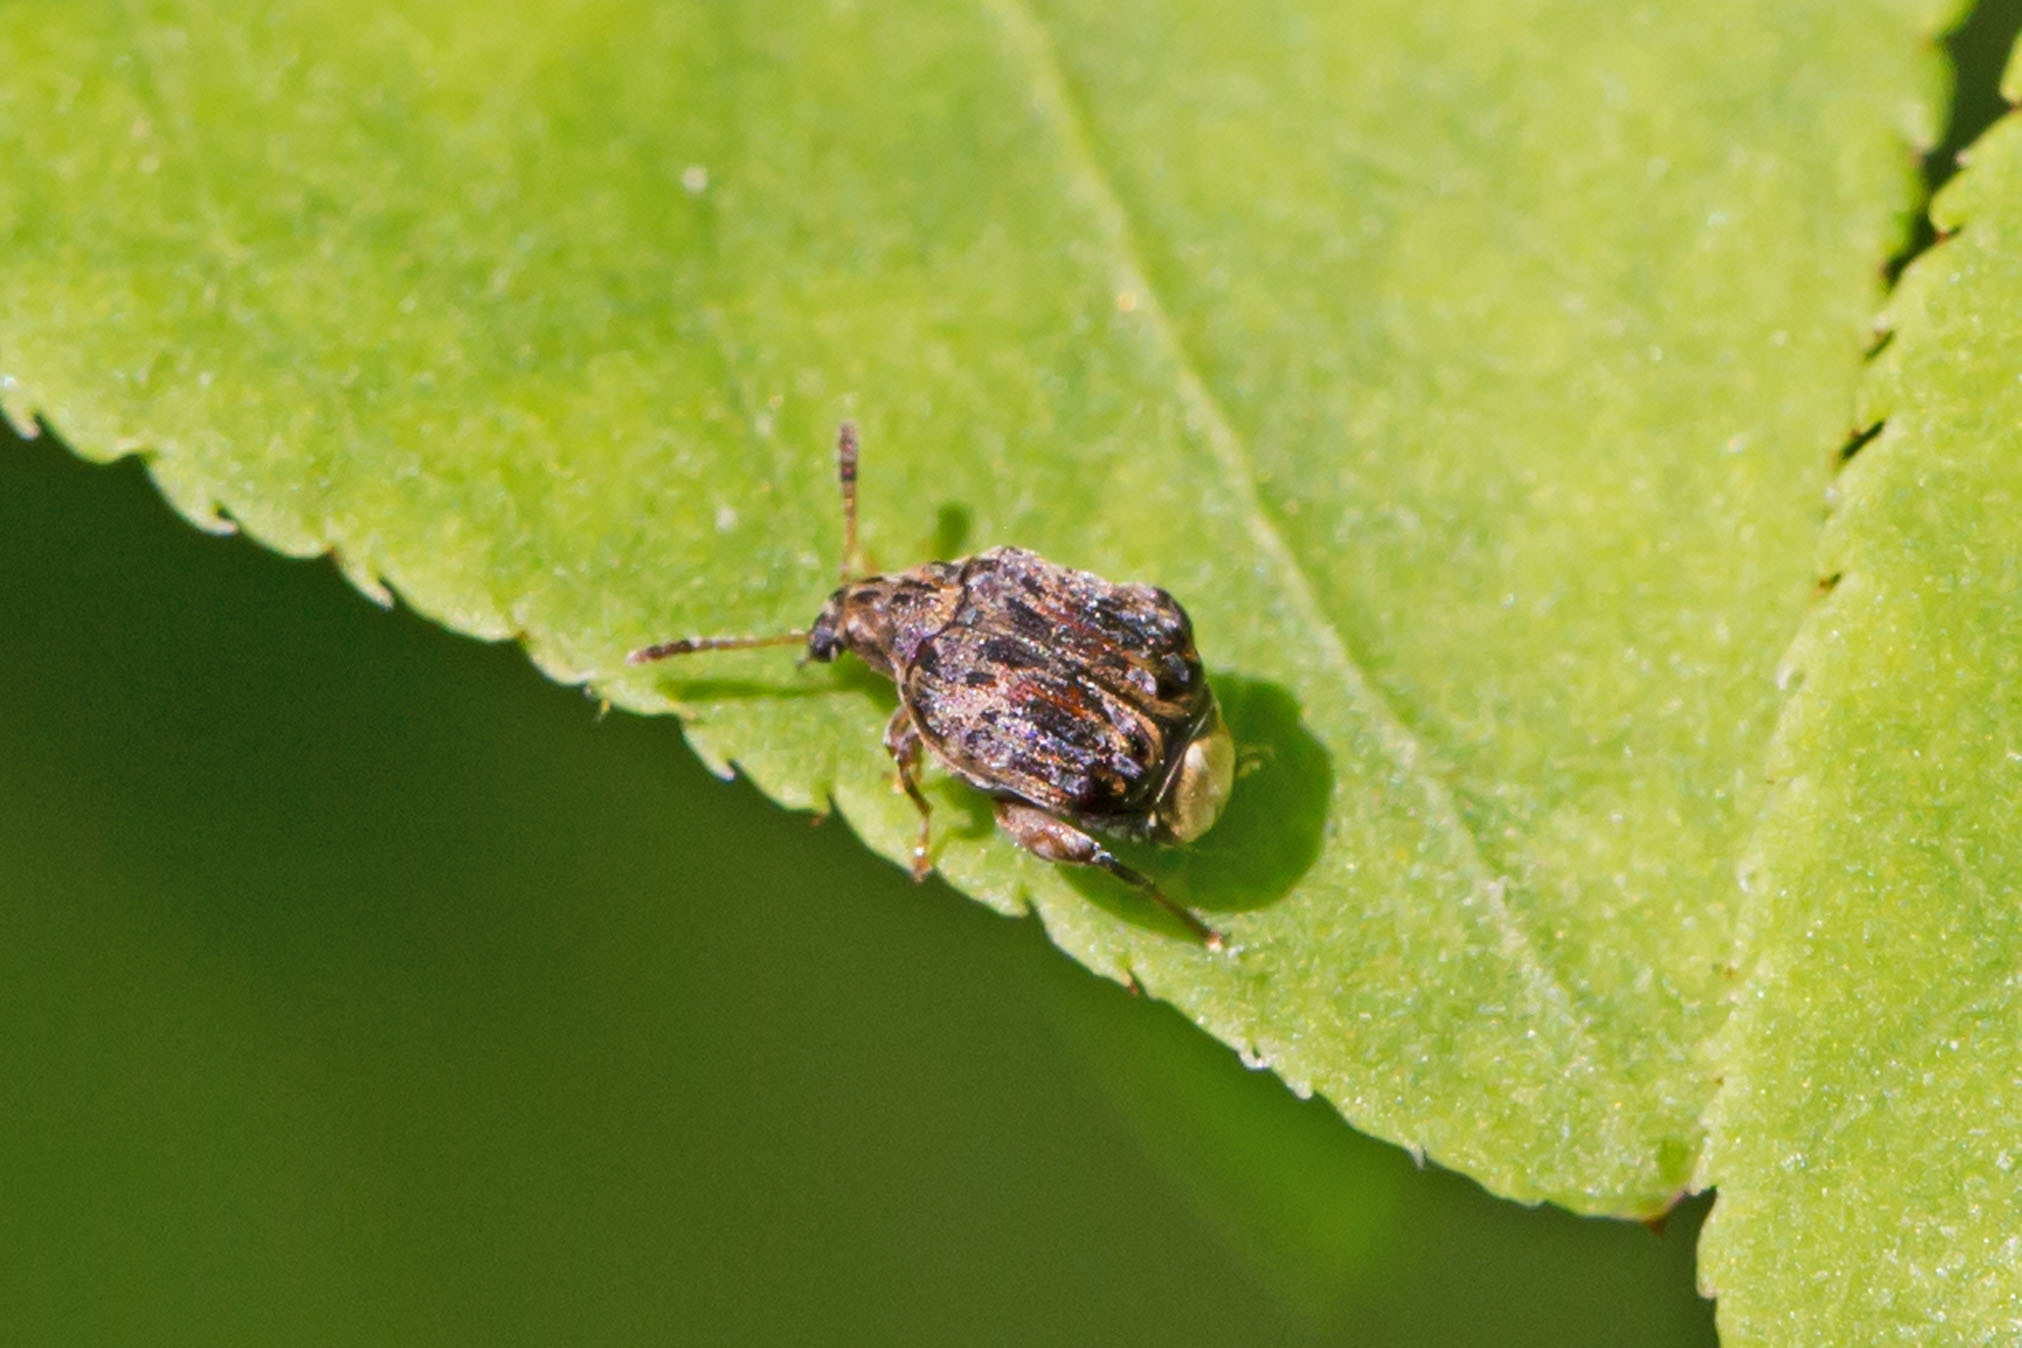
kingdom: Animalia
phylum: Arthropoda
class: Insecta
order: Coleoptera
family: Chrysomelidae
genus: Gibbobruchus
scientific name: Gibbobruchus mimus
